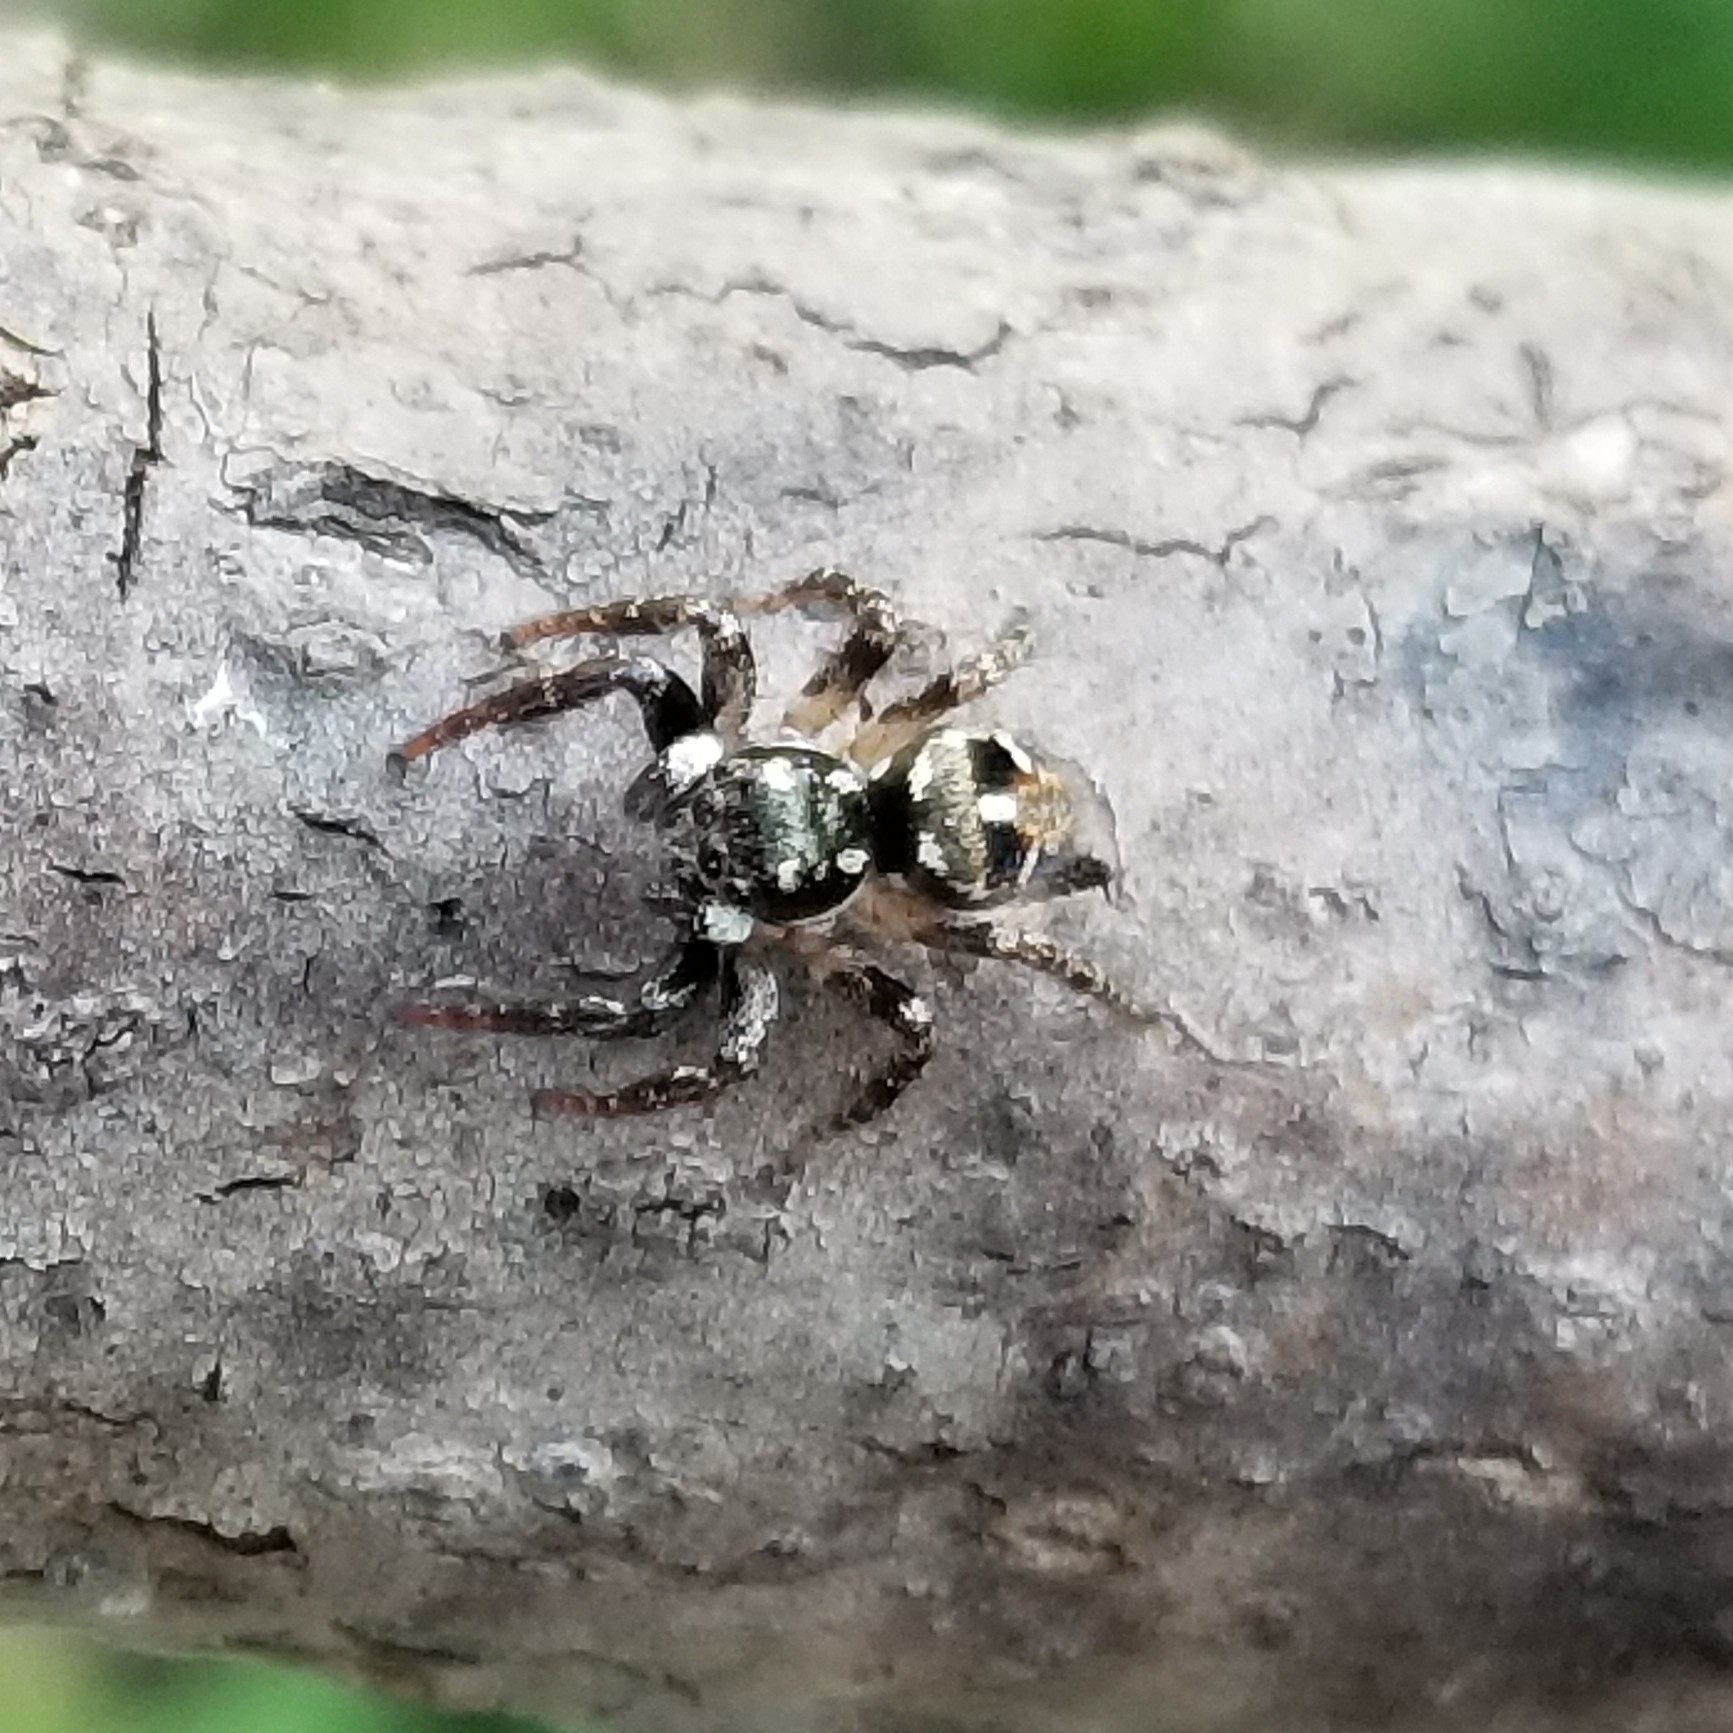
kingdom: Animalia
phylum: Arthropoda
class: Arachnida
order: Araneae
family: Salticidae
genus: Anasaitis
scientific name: Anasaitis canosa
